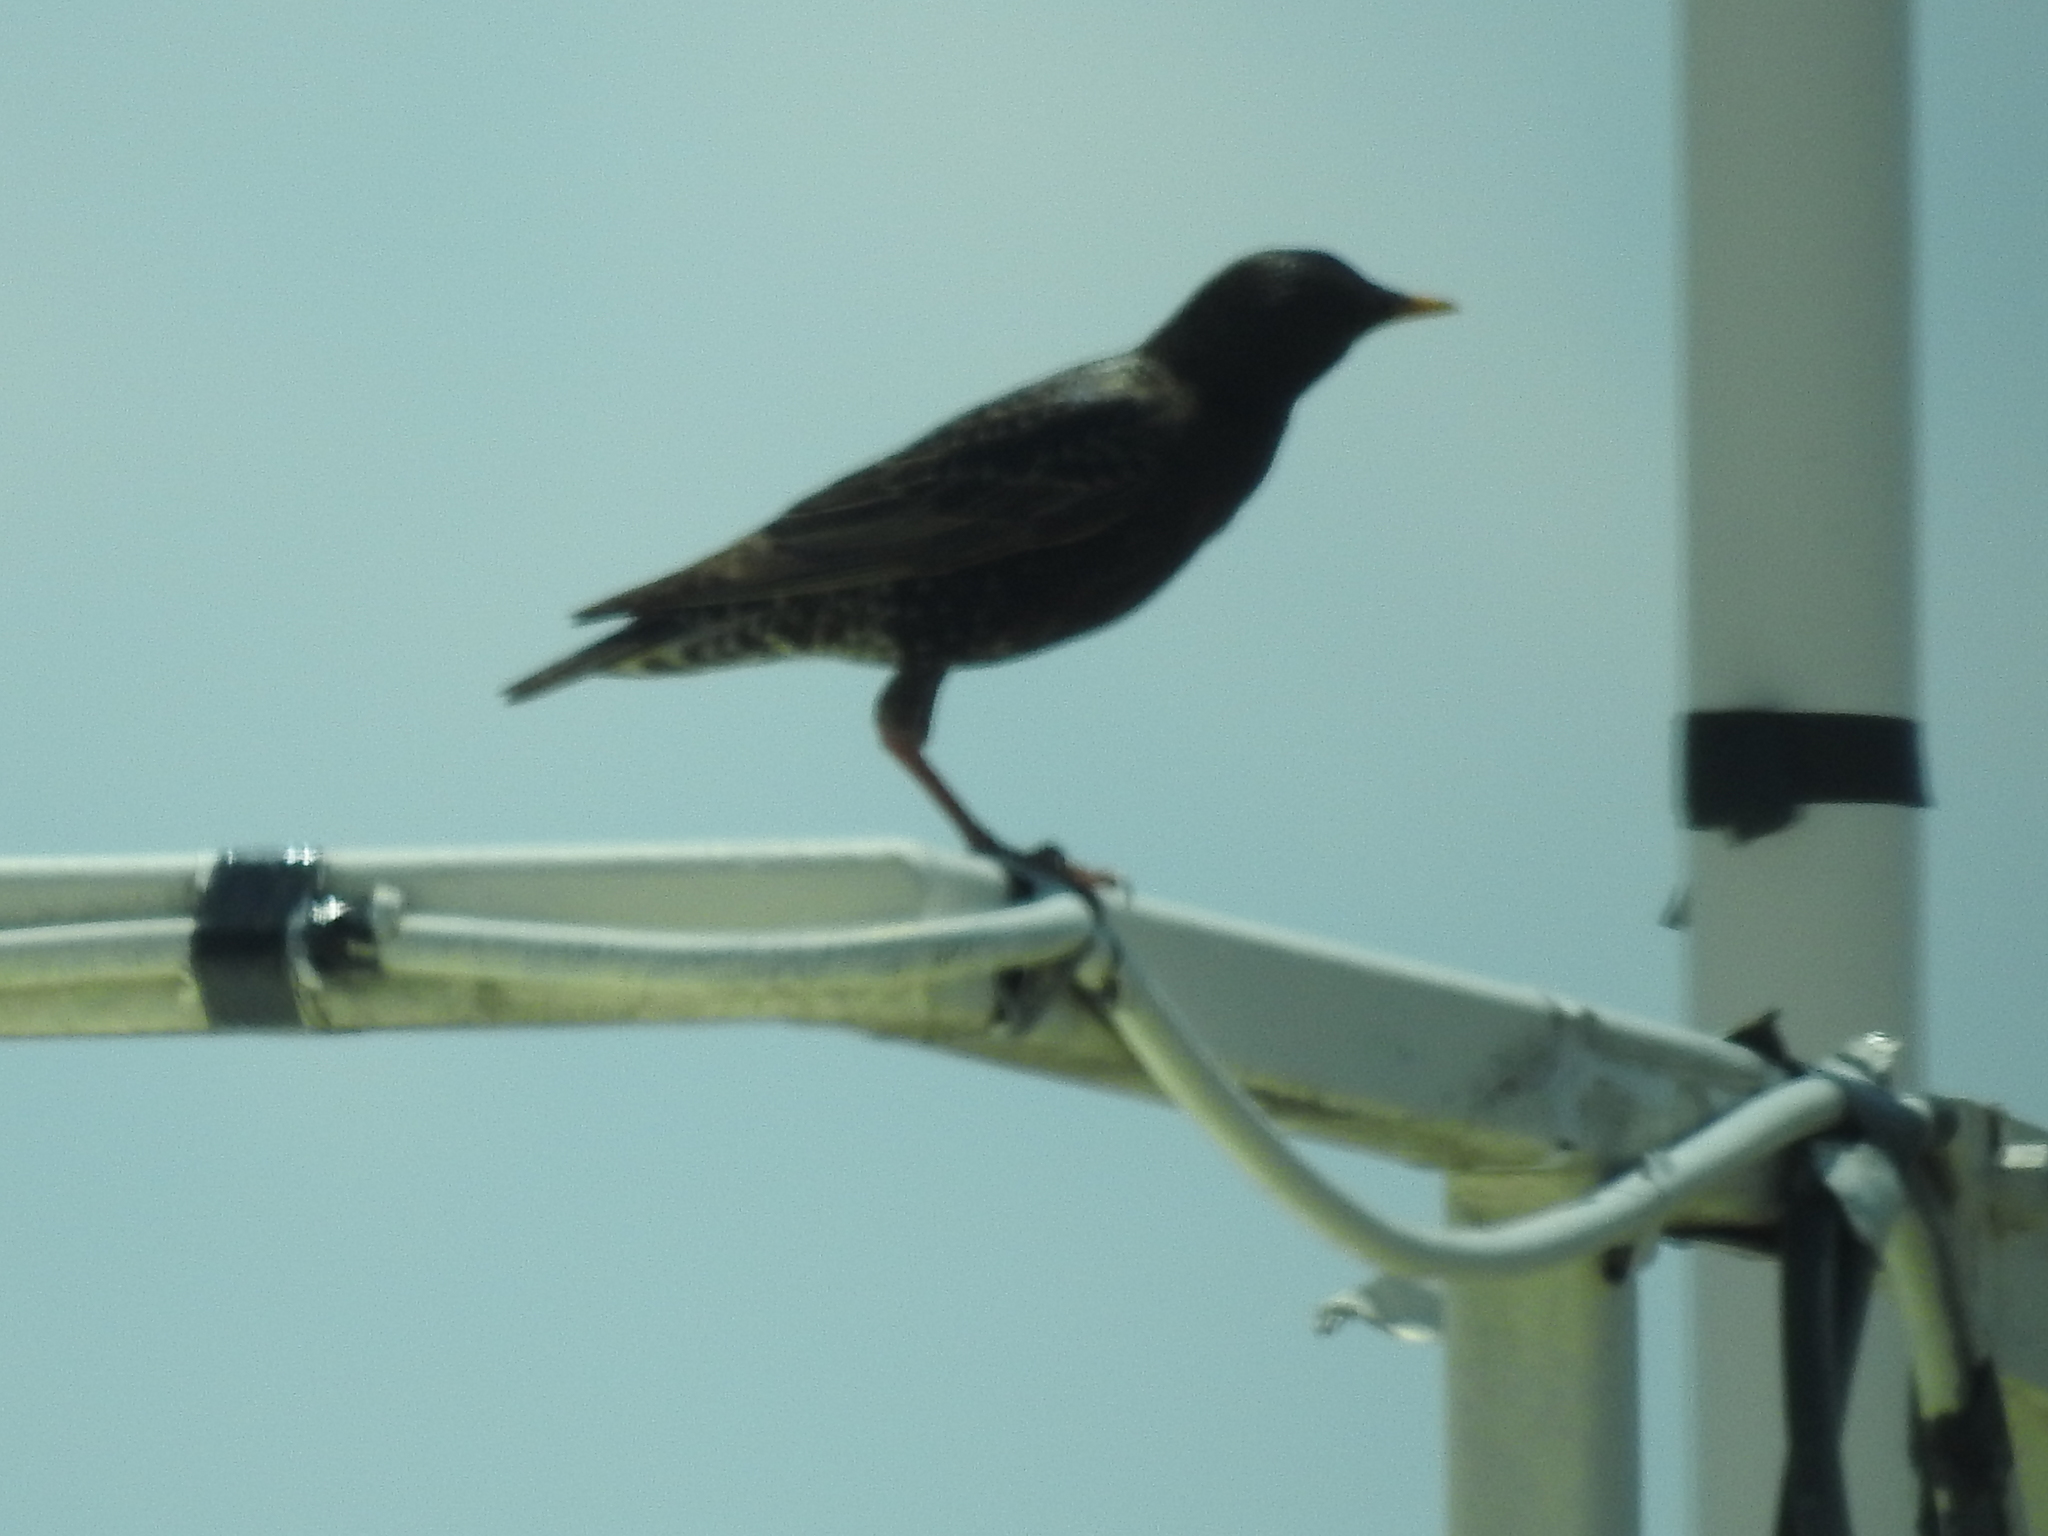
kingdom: Animalia
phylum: Chordata
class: Aves
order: Passeriformes
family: Sturnidae
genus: Sturnus
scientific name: Sturnus vulgaris
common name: Common starling
